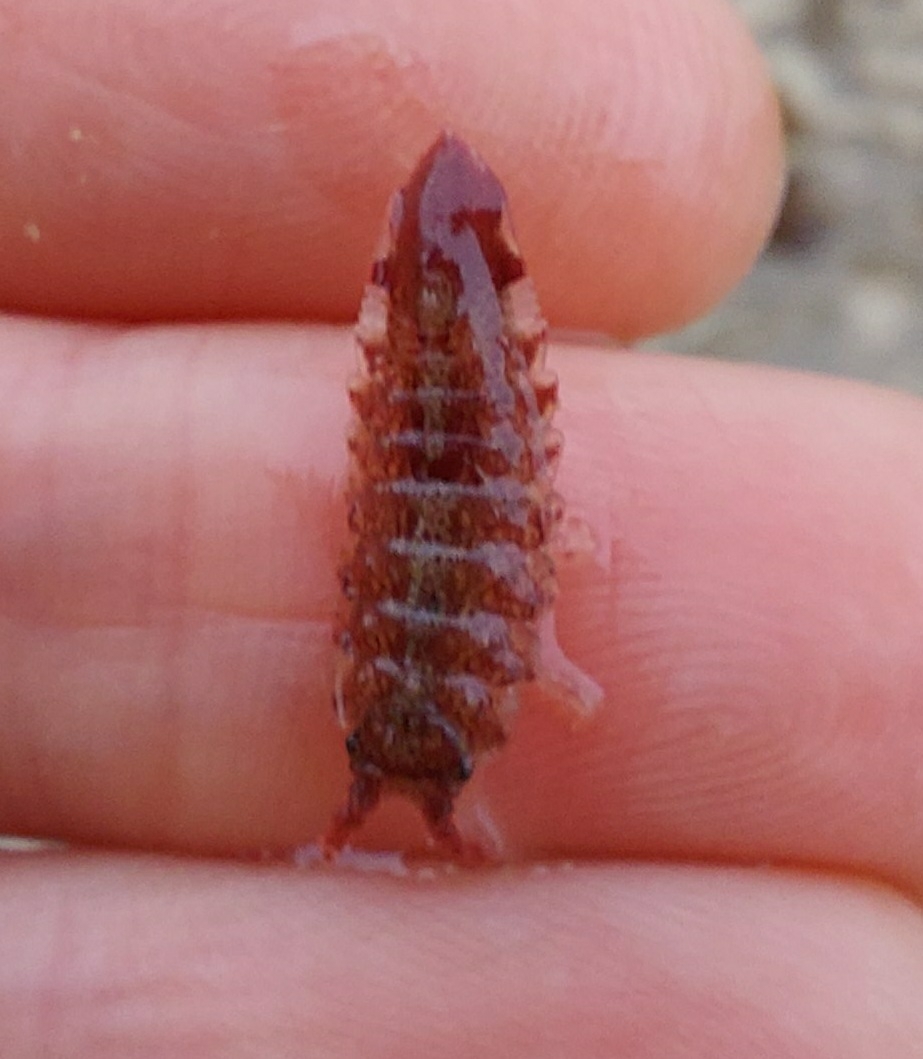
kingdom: Animalia
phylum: Arthropoda
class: Malacostraca
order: Isopoda
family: Idoteidae
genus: Idotea
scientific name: Idotea phosphorea
